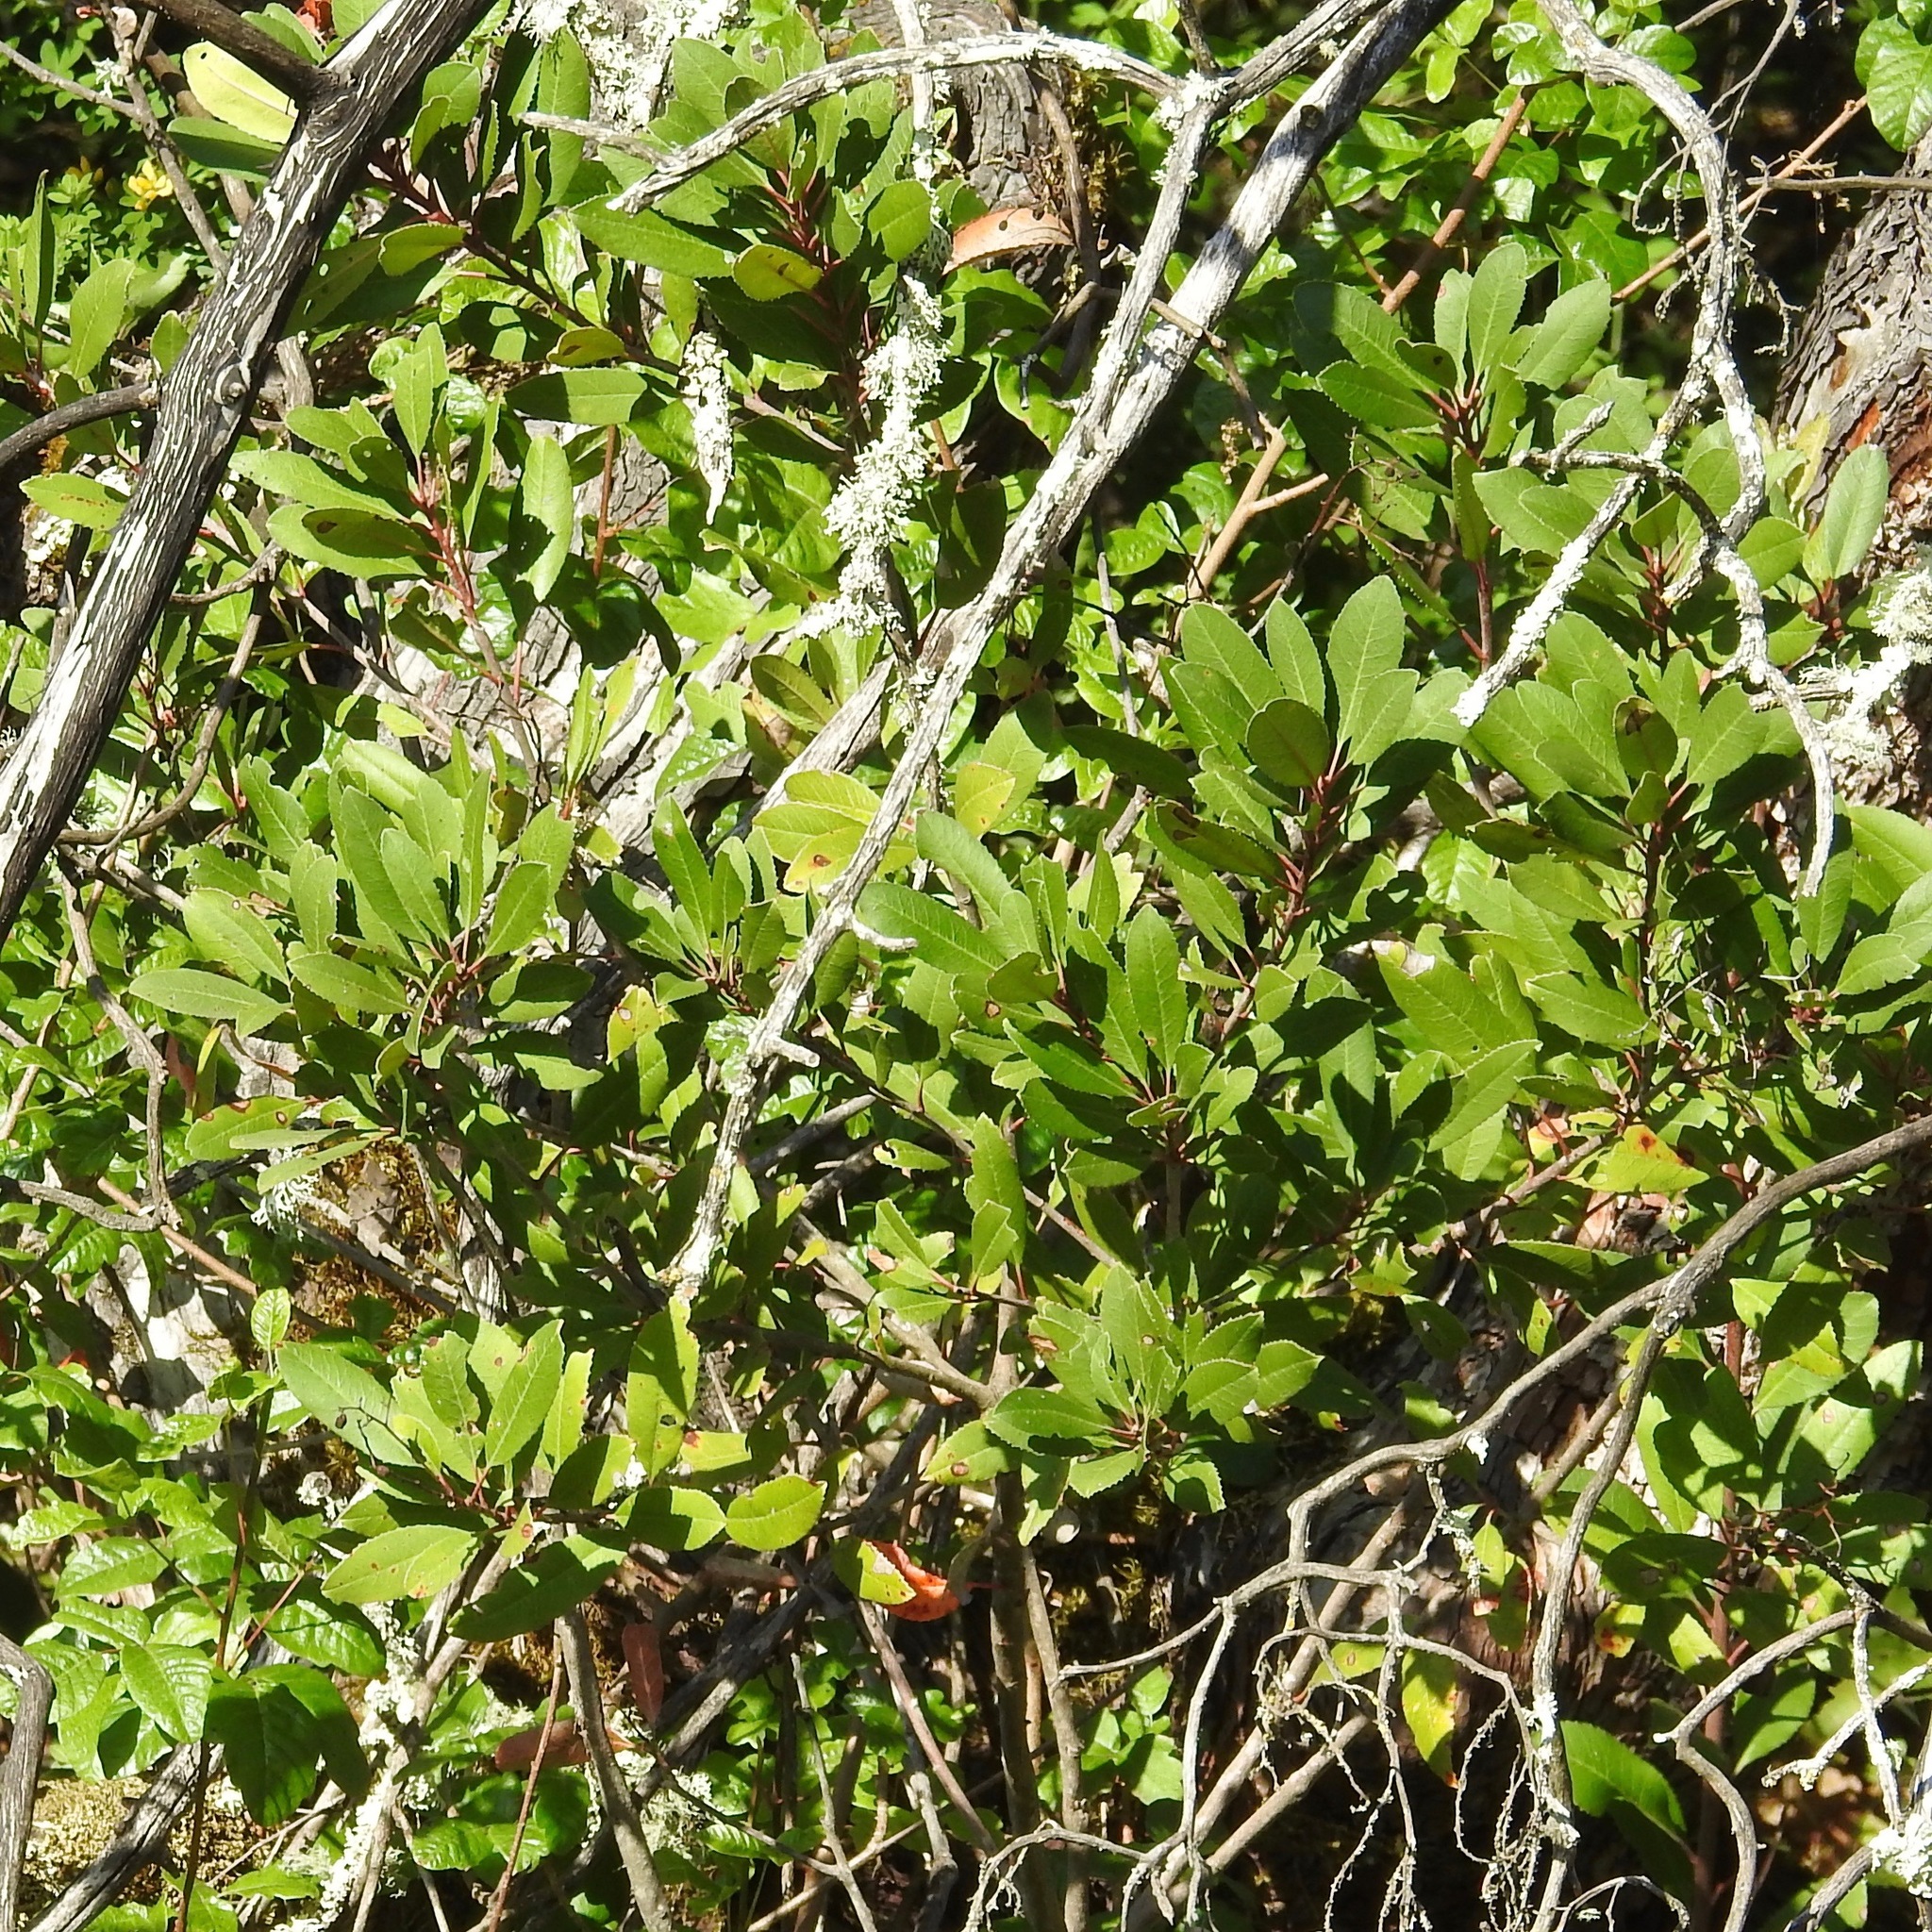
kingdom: Plantae
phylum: Tracheophyta
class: Magnoliopsida
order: Rosales
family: Rosaceae
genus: Heteromeles
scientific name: Heteromeles arbutifolia
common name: California-holly
